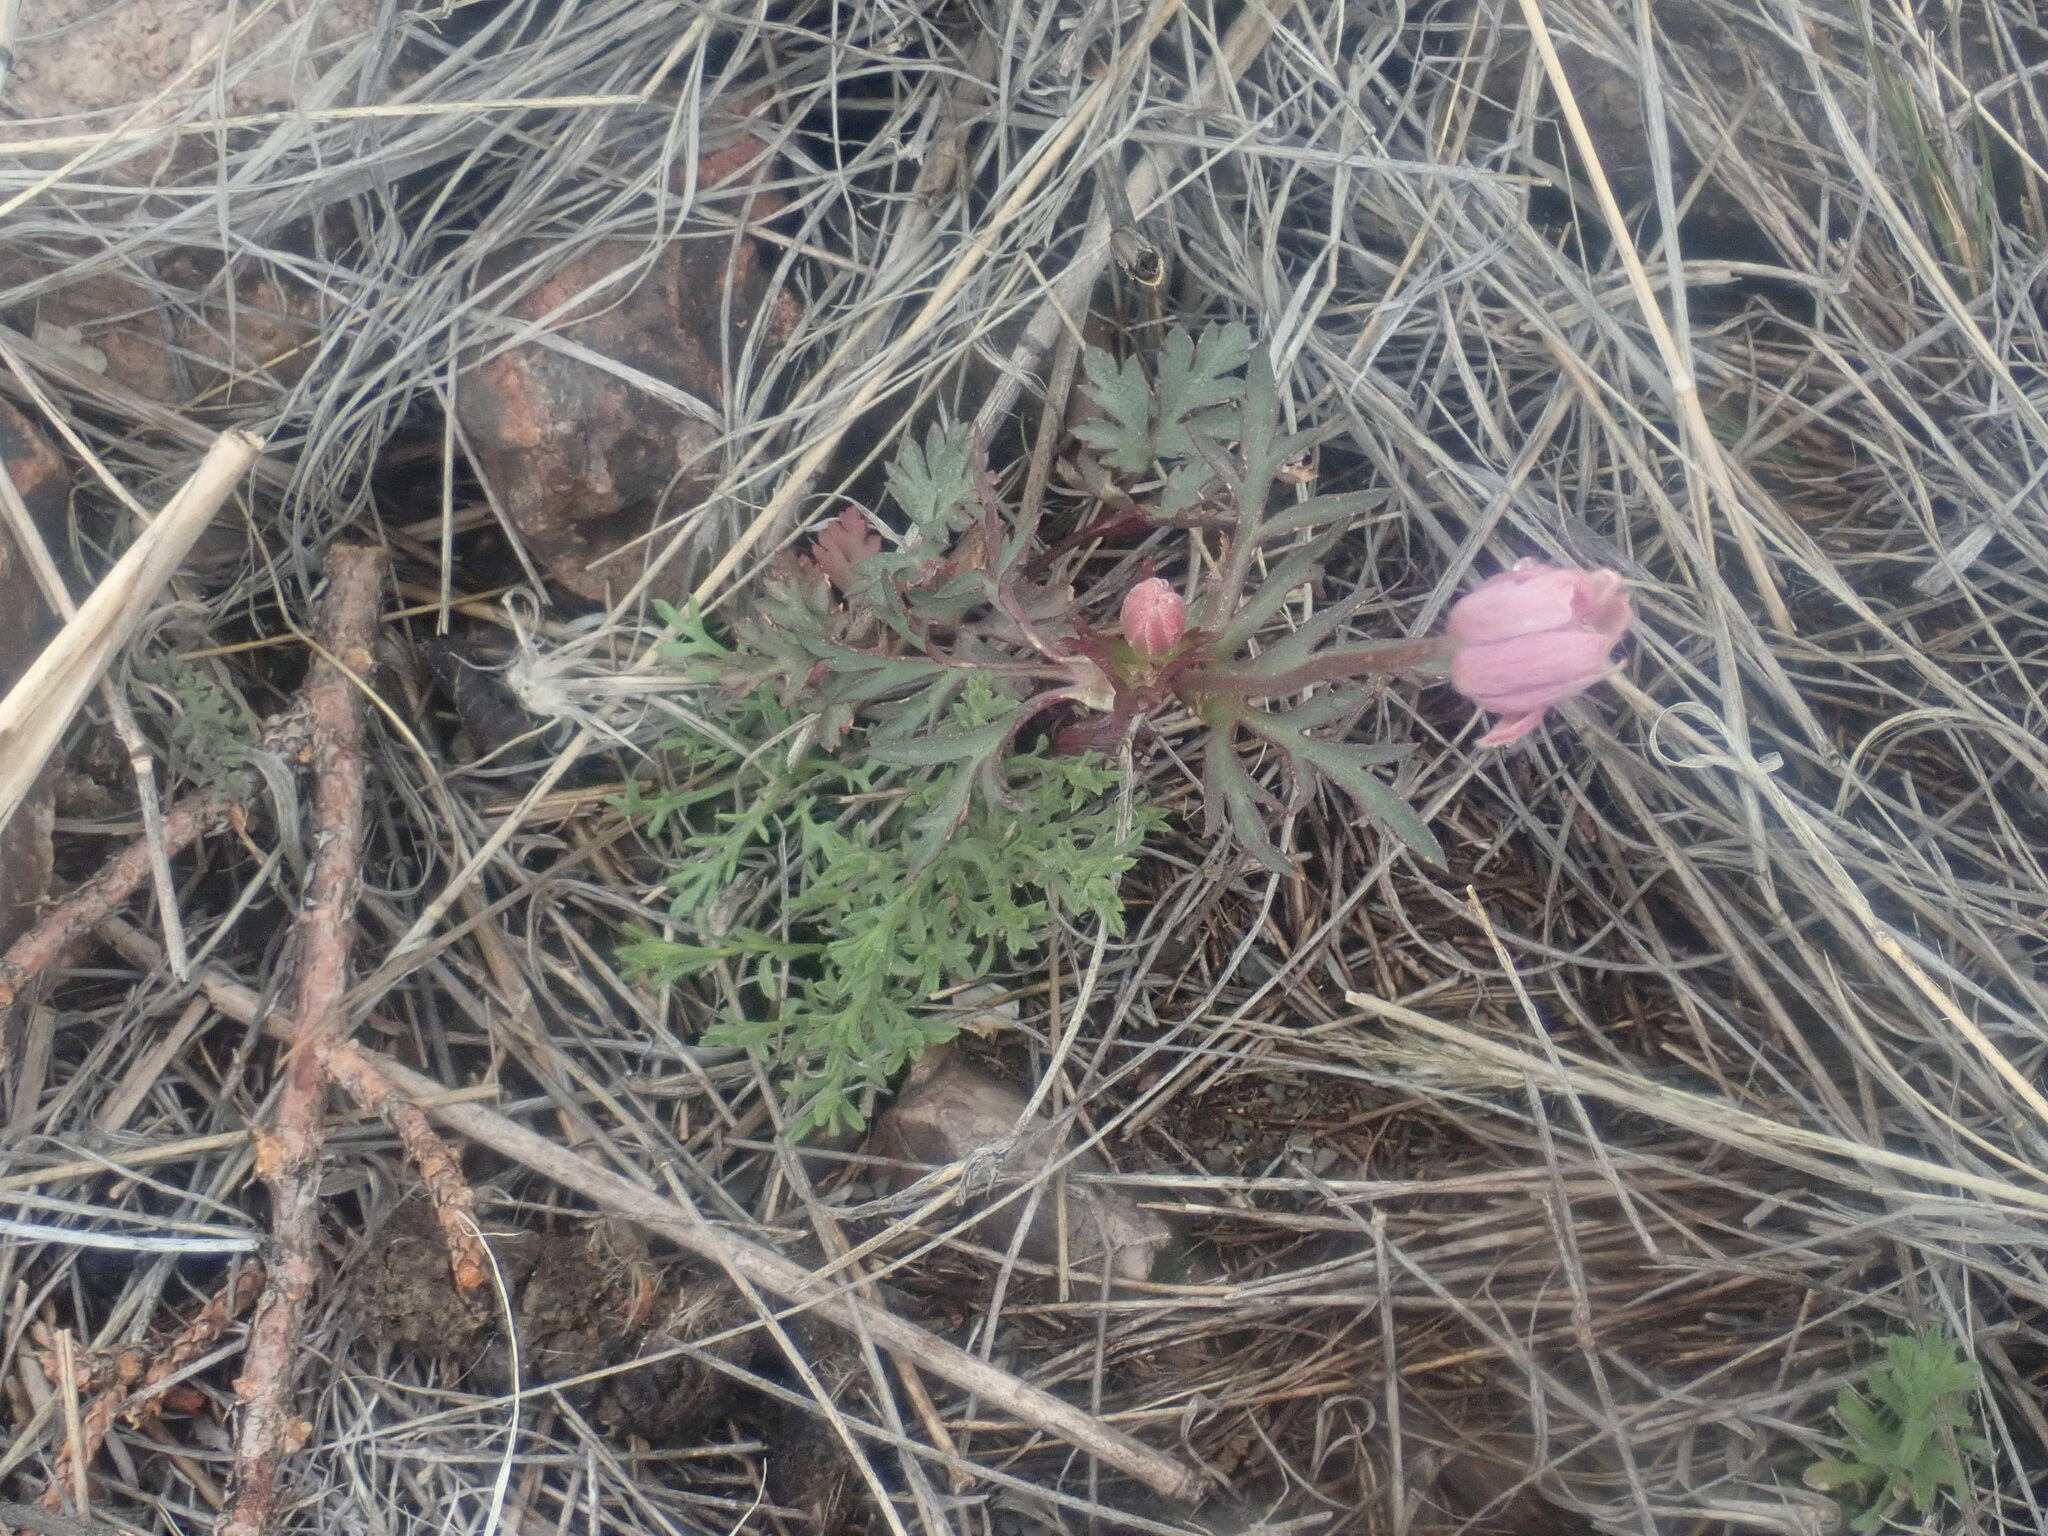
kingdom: Plantae
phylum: Tracheophyta
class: Magnoliopsida
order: Ranunculales
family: Ranunculaceae
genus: Anemone
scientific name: Anemone tuberosa
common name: Desert anemone
